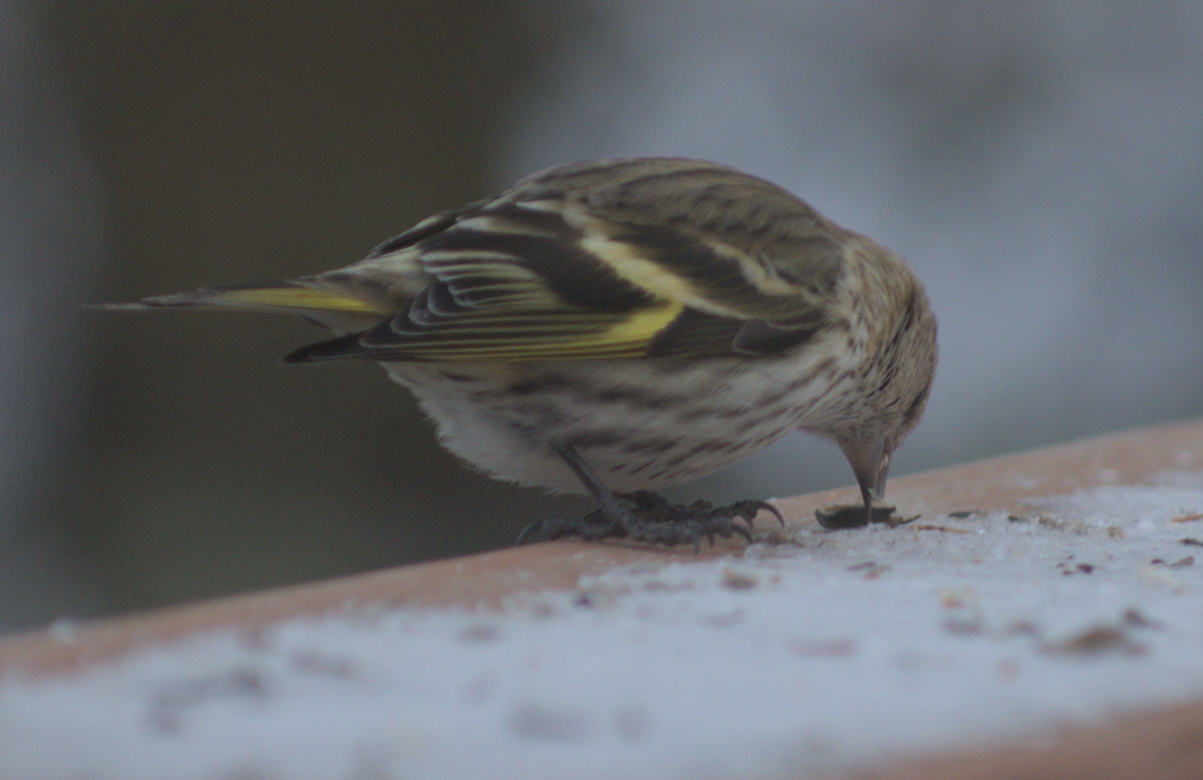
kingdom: Animalia
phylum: Chordata
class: Aves
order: Passeriformes
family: Fringillidae
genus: Spinus
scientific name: Spinus pinus
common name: Pine siskin
